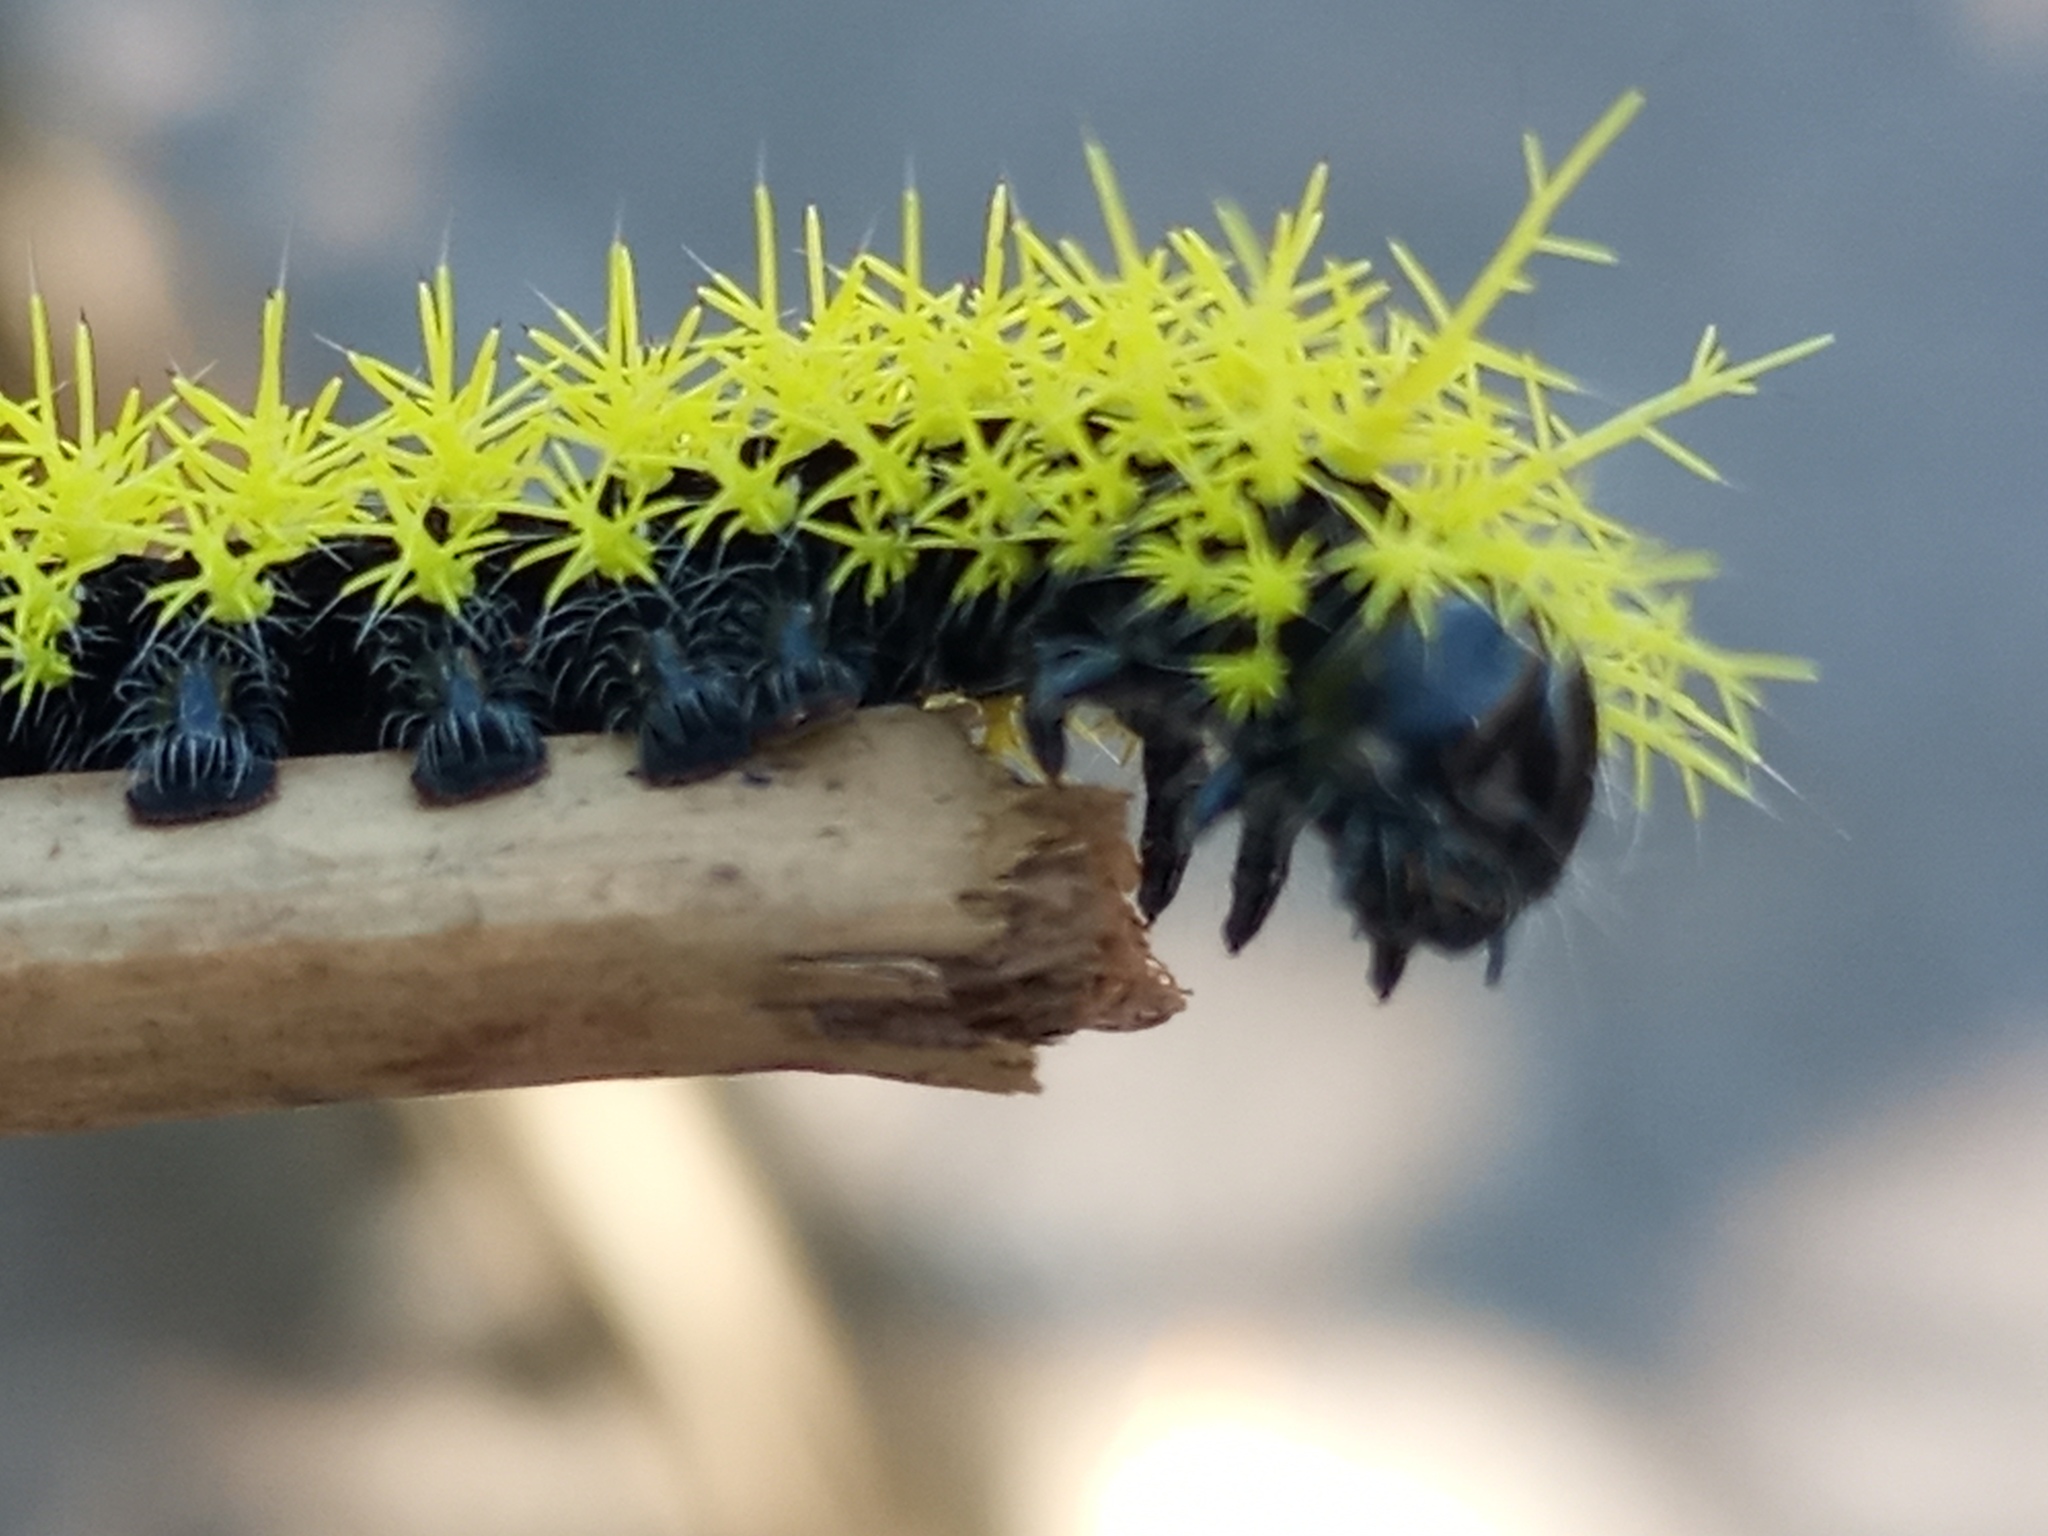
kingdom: Animalia
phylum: Arthropoda
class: Insecta
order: Lepidoptera
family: Saturniidae
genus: Leucanella
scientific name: Leucanella viridescens
